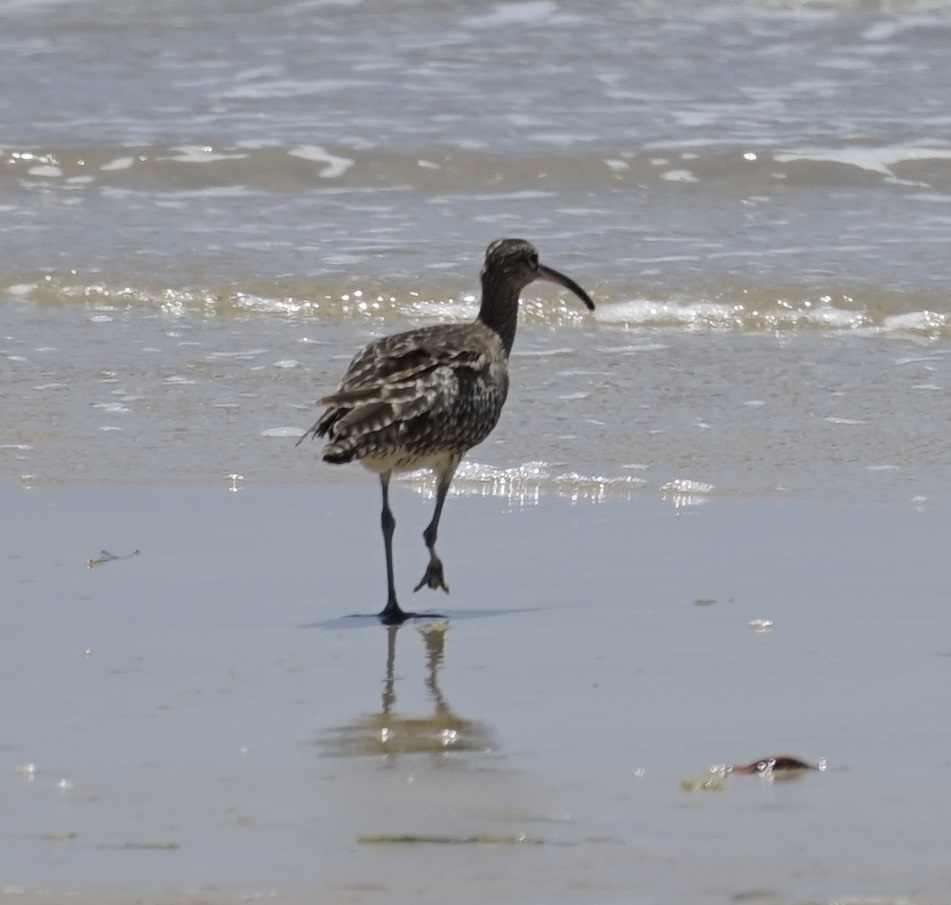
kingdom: Animalia
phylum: Chordata
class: Aves
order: Charadriiformes
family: Scolopacidae
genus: Numenius
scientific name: Numenius phaeopus
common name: Whimbrel
